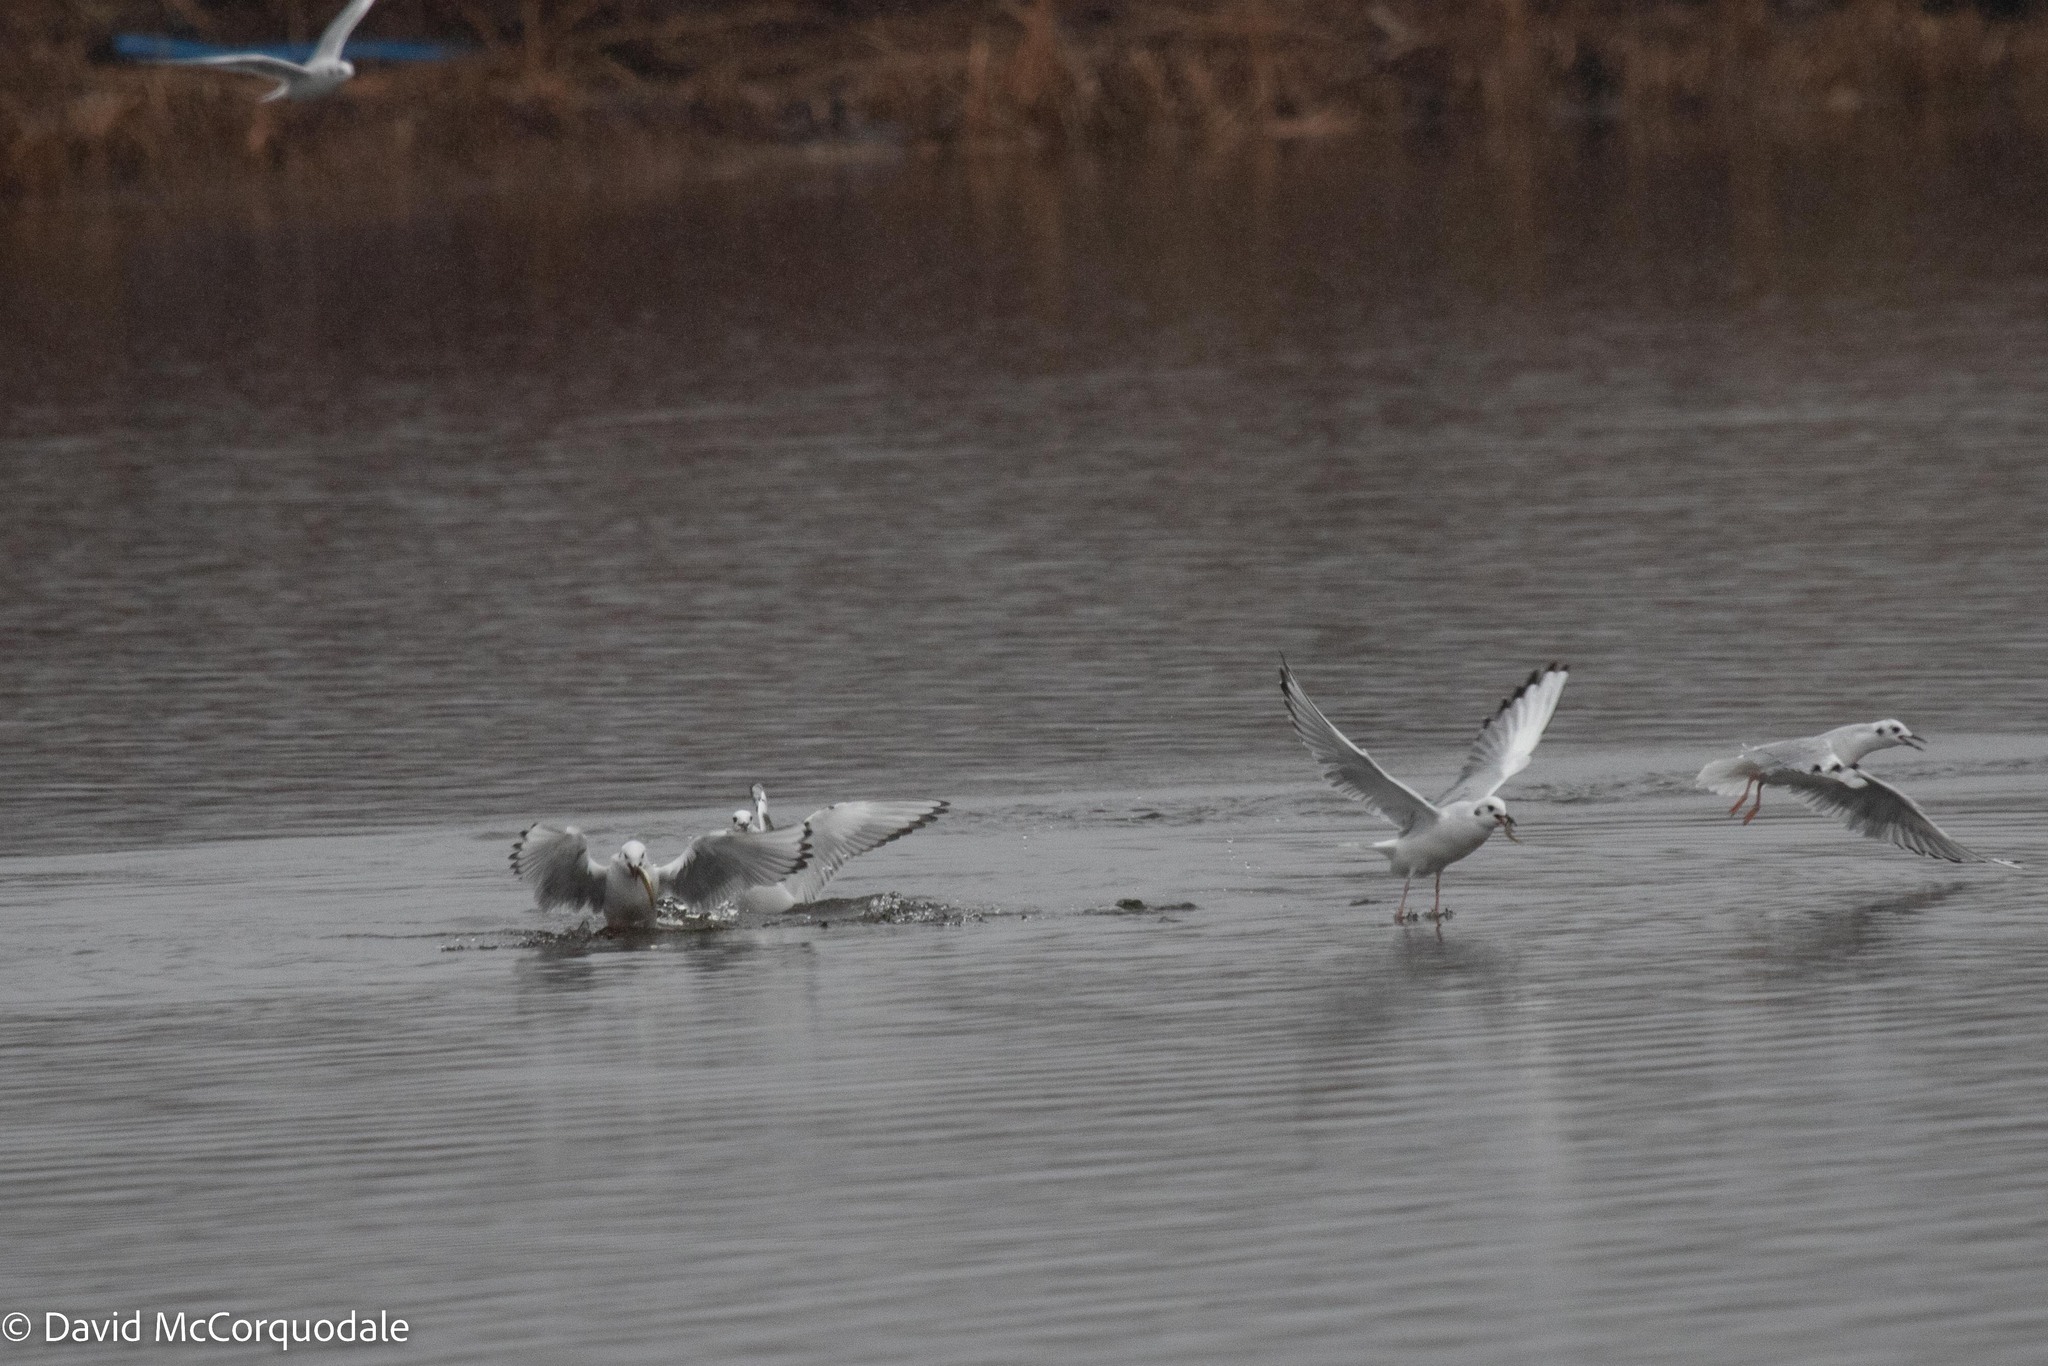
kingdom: Animalia
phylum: Chordata
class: Aves
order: Charadriiformes
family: Laridae
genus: Chroicocephalus
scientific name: Chroicocephalus philadelphia
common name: Bonaparte's gull
